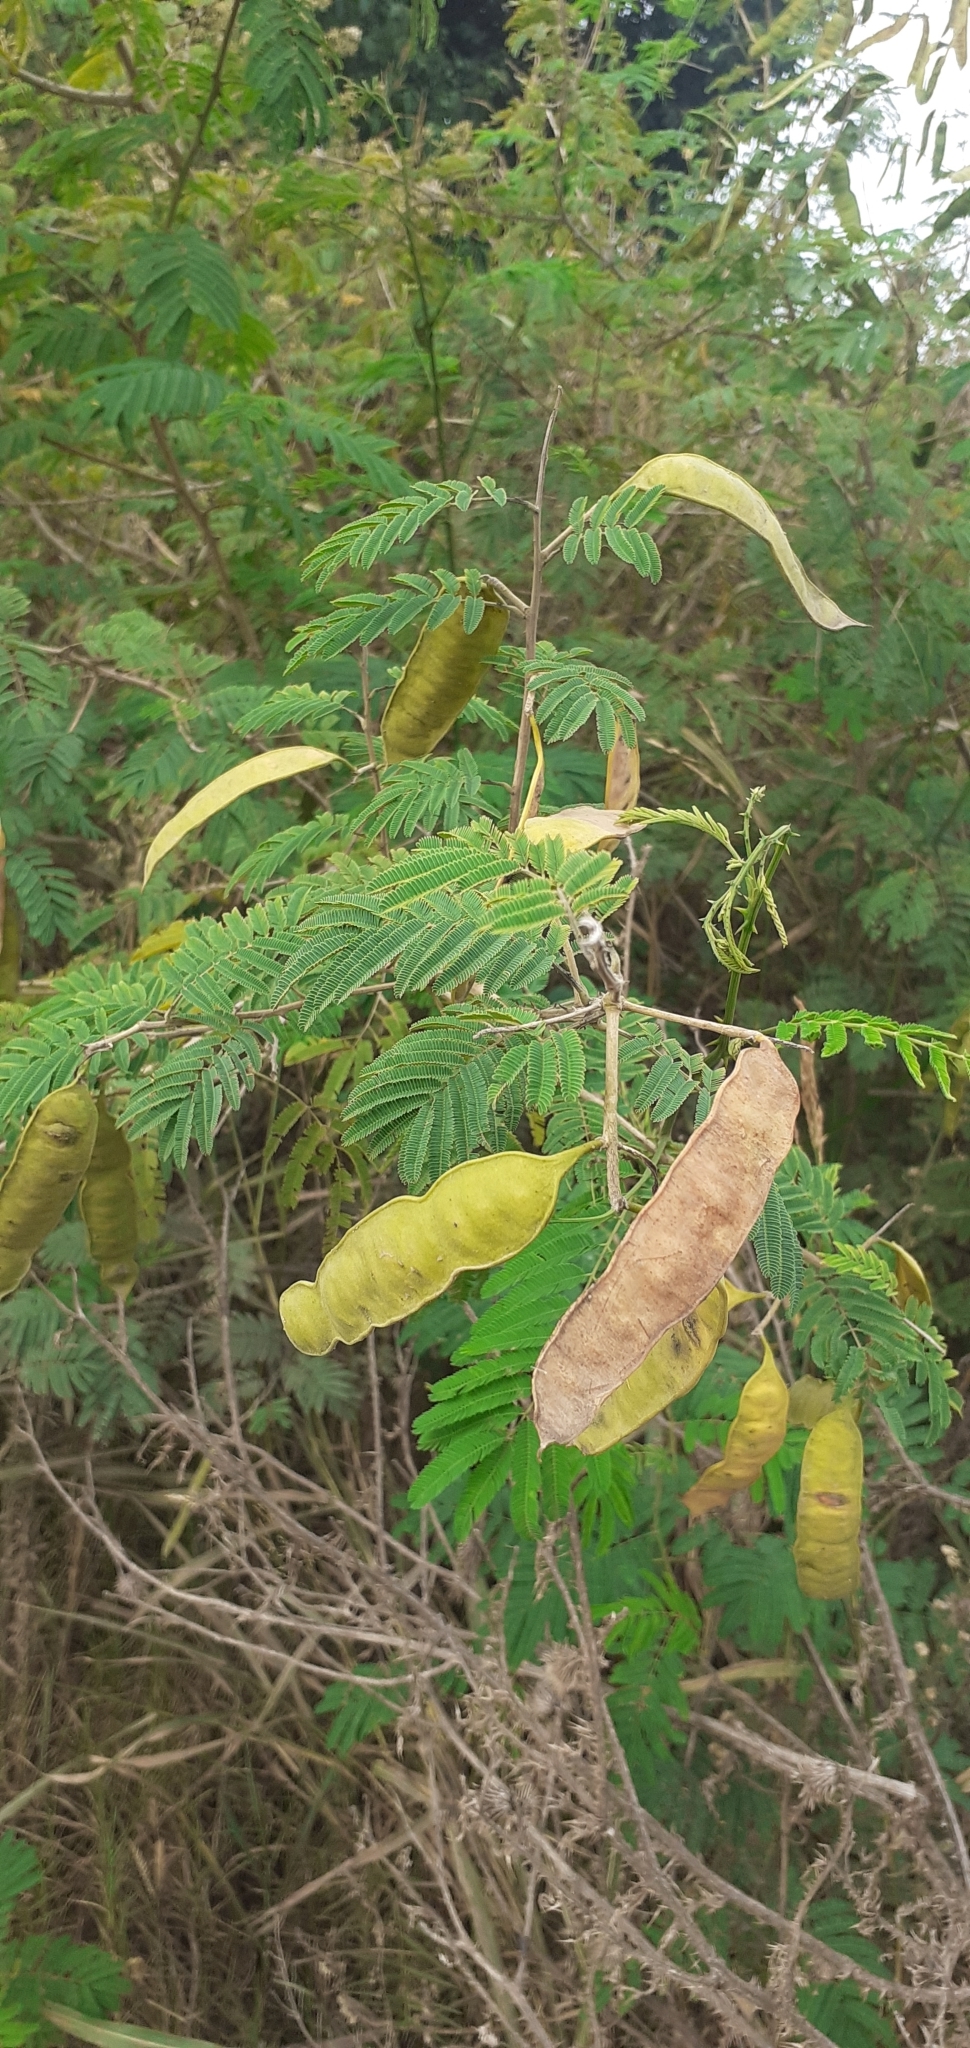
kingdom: Plantae
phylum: Tracheophyta
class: Magnoliopsida
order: Fabales
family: Fabaceae
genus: Senegalia
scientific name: Senegalia praecox
